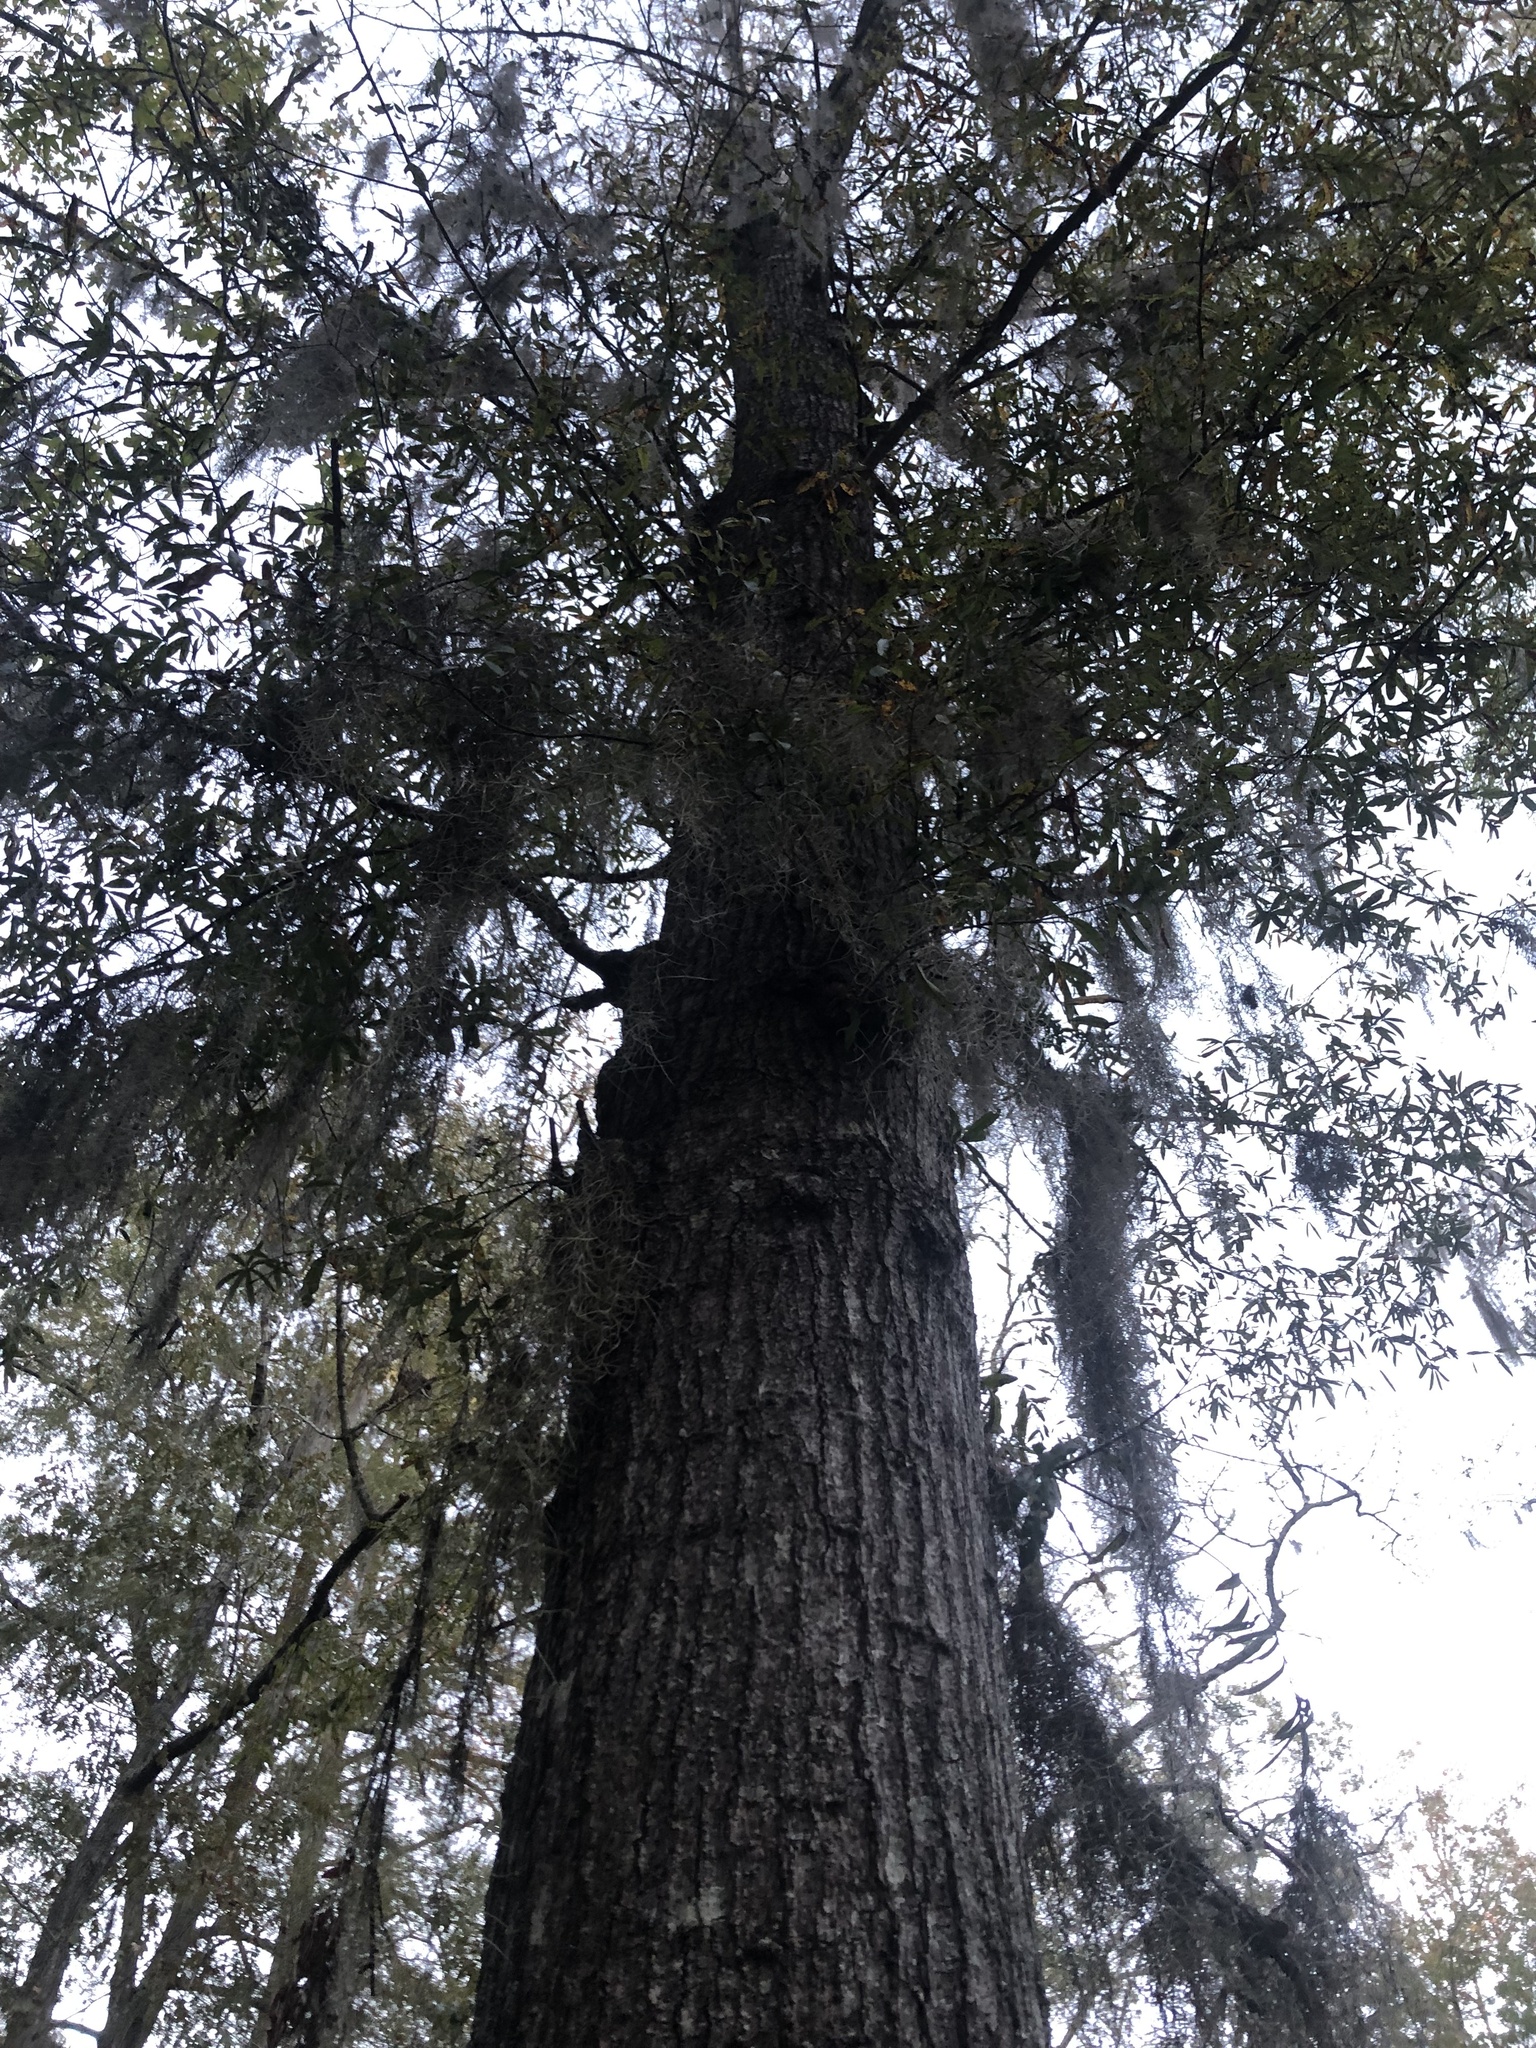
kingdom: Plantae
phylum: Tracheophyta
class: Liliopsida
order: Poales
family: Bromeliaceae
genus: Tillandsia
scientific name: Tillandsia usneoides
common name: Spanish moss
